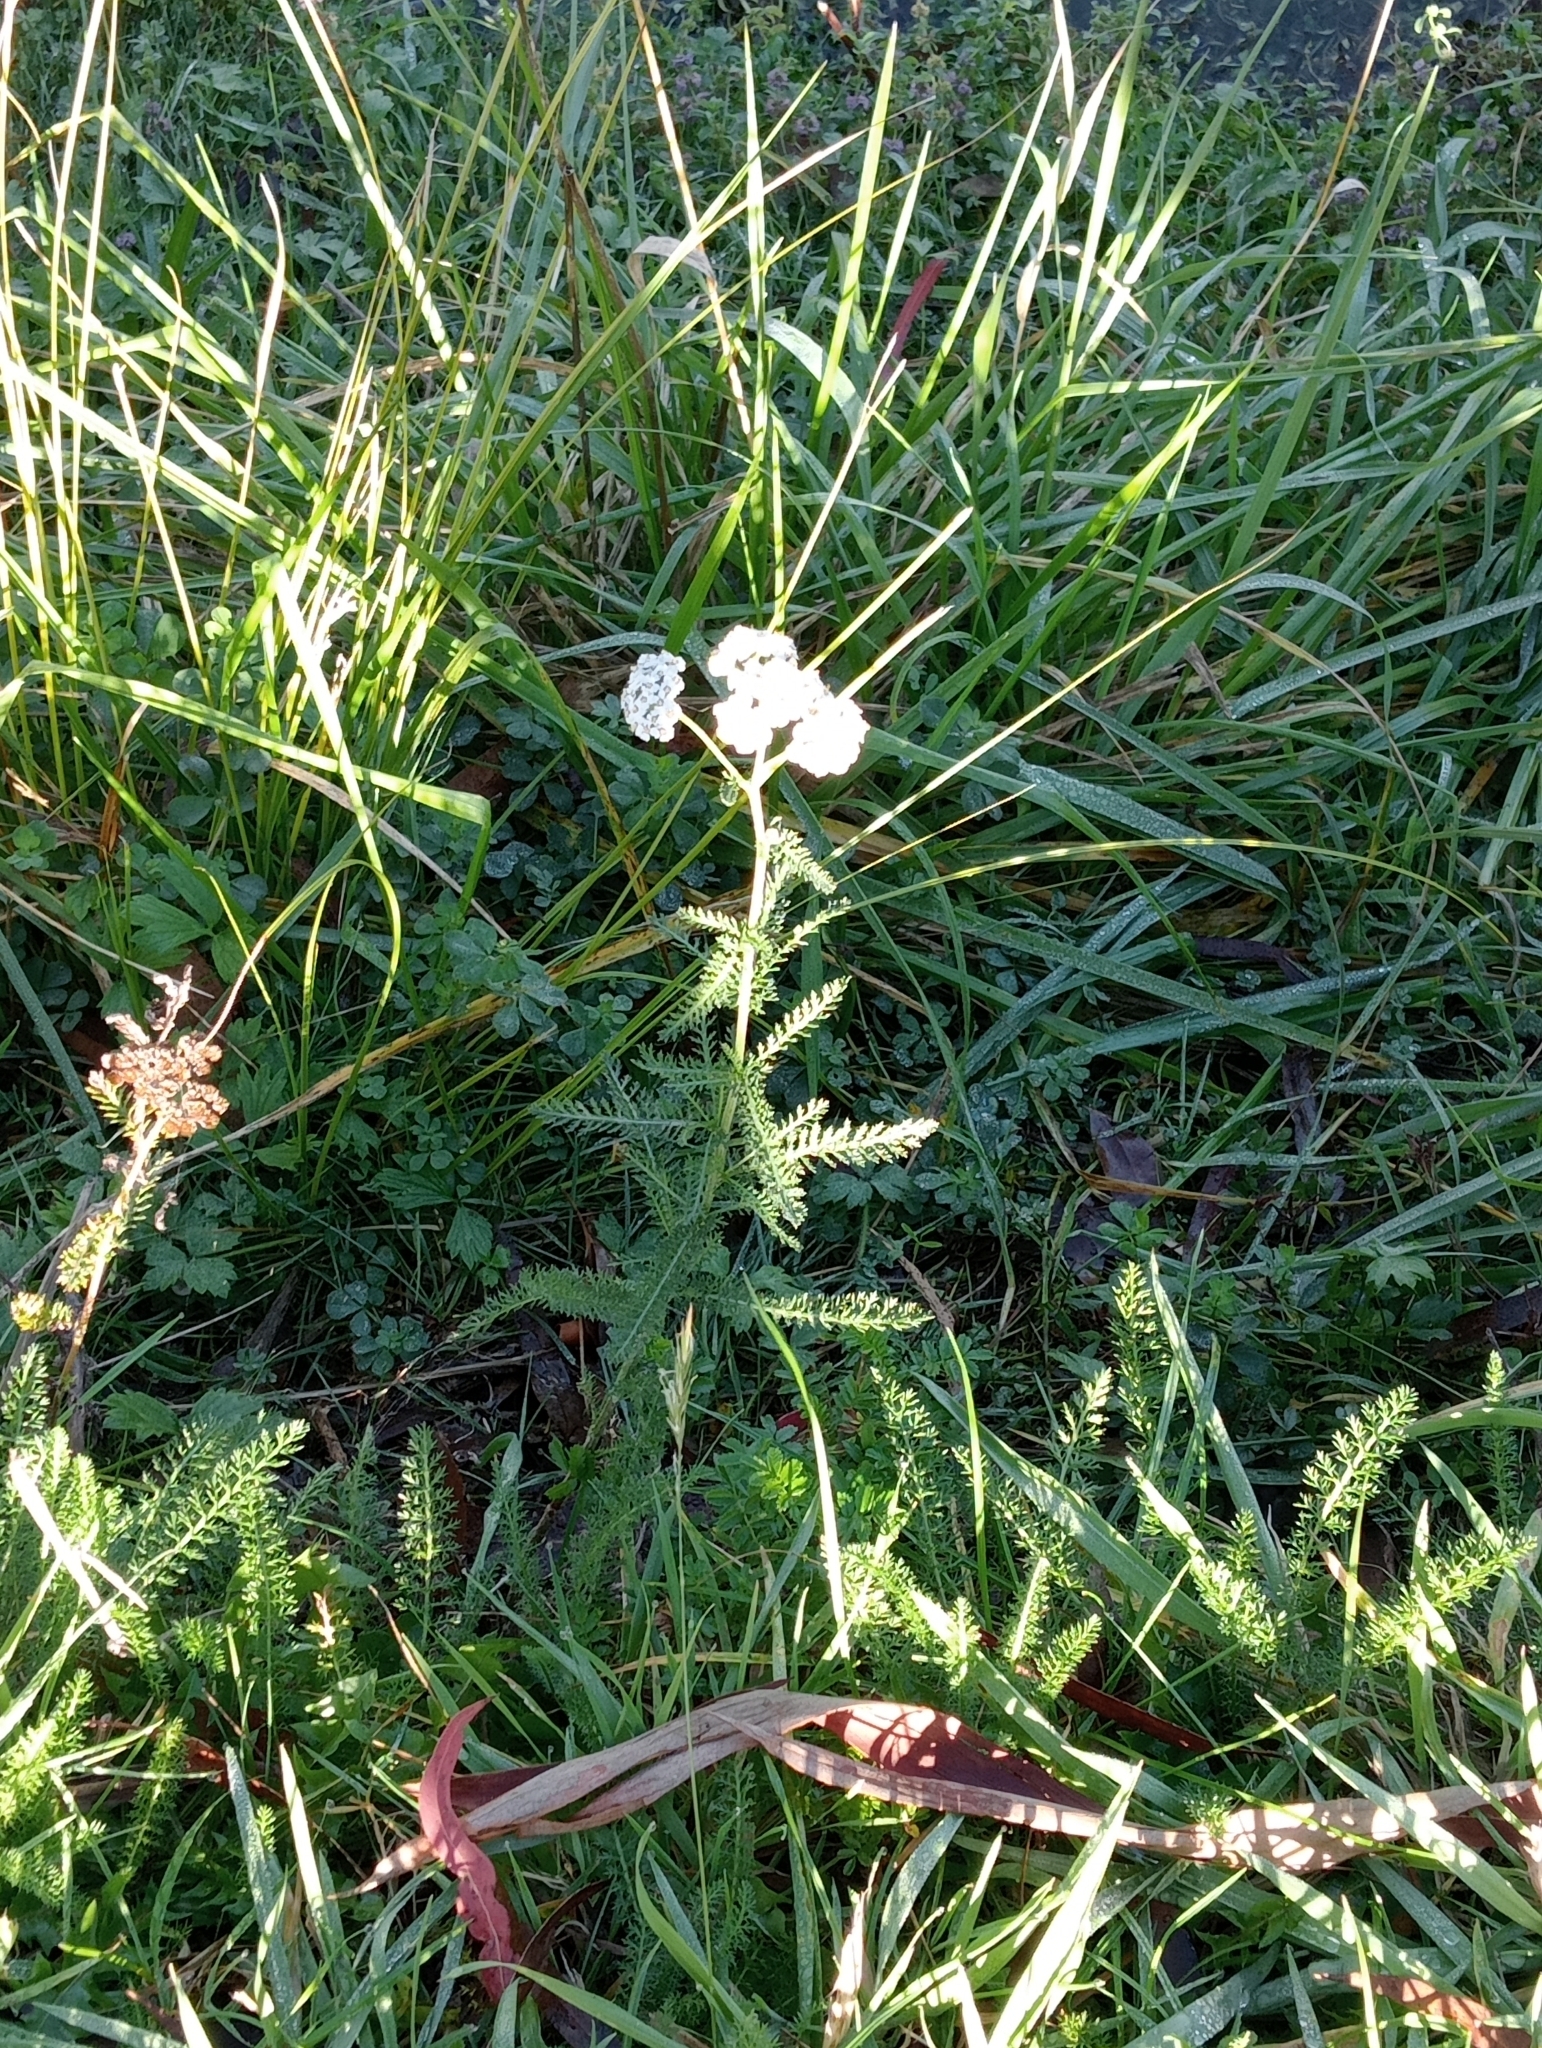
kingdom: Plantae
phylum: Tracheophyta
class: Magnoliopsida
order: Asterales
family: Asteraceae
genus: Achillea
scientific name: Achillea millefolium
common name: Yarrow
